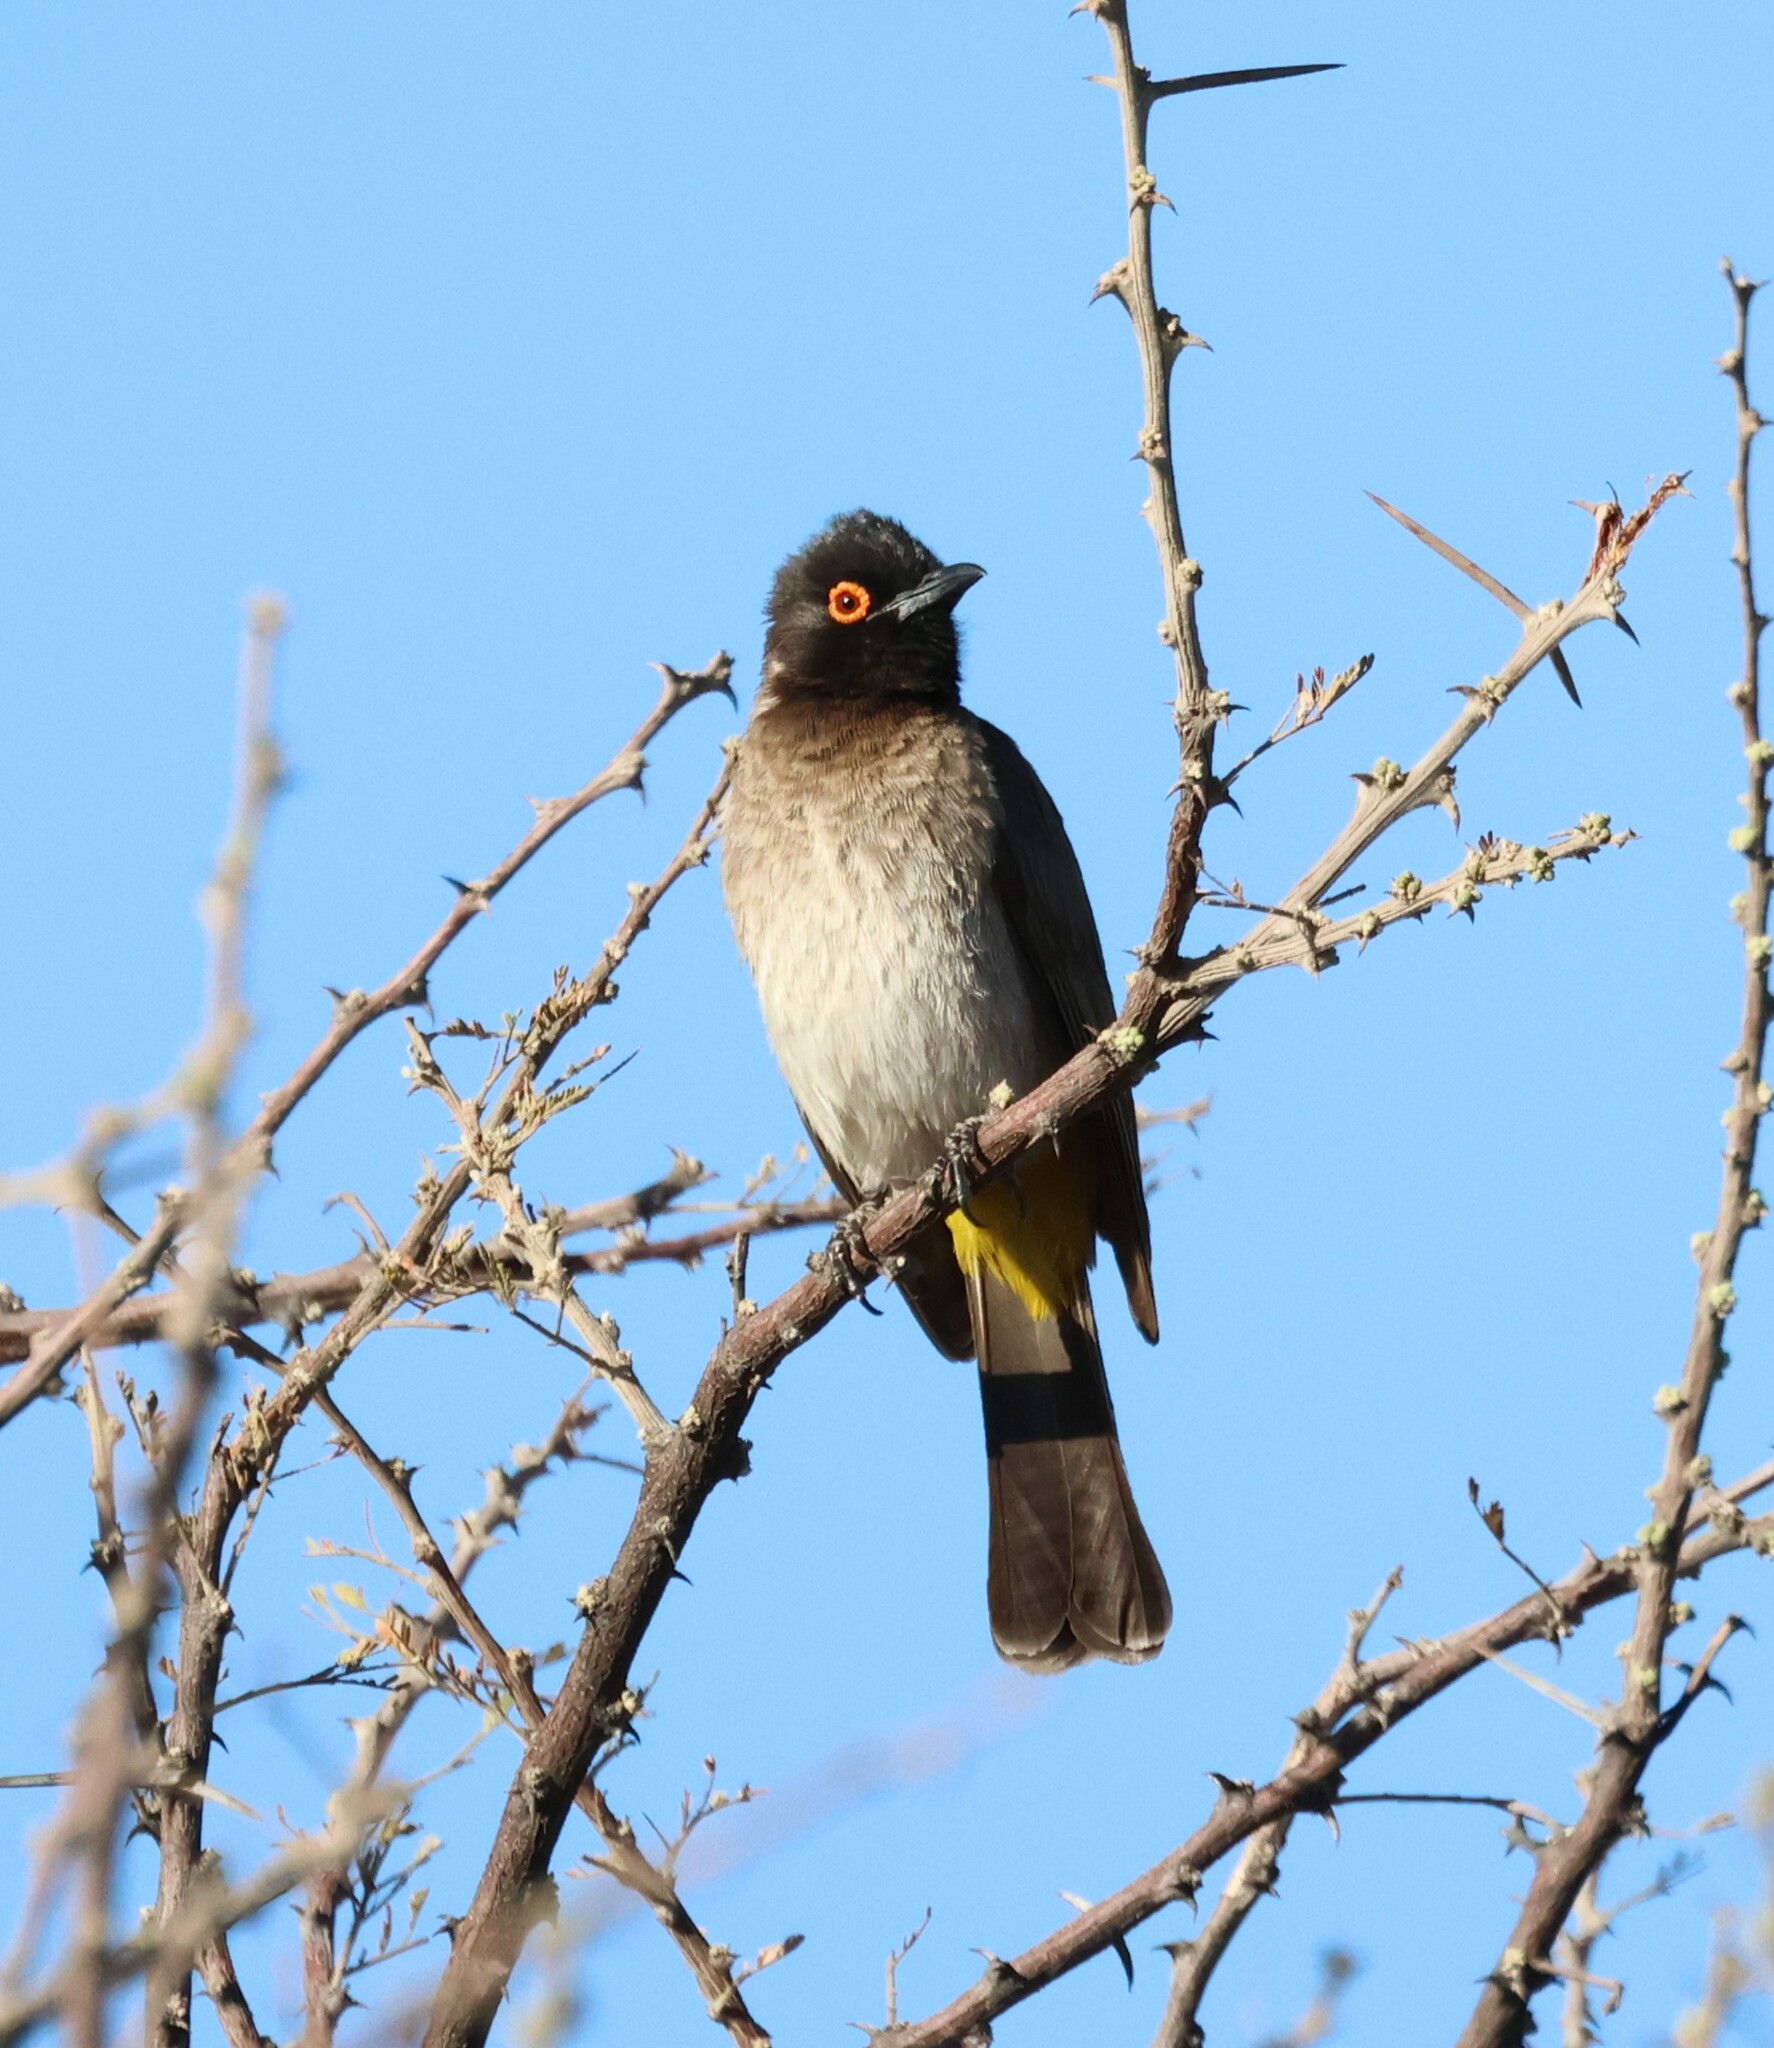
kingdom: Animalia
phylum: Chordata
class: Aves
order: Passeriformes
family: Pycnonotidae
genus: Pycnonotus
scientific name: Pycnonotus nigricans
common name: African red-eyed bulbul
